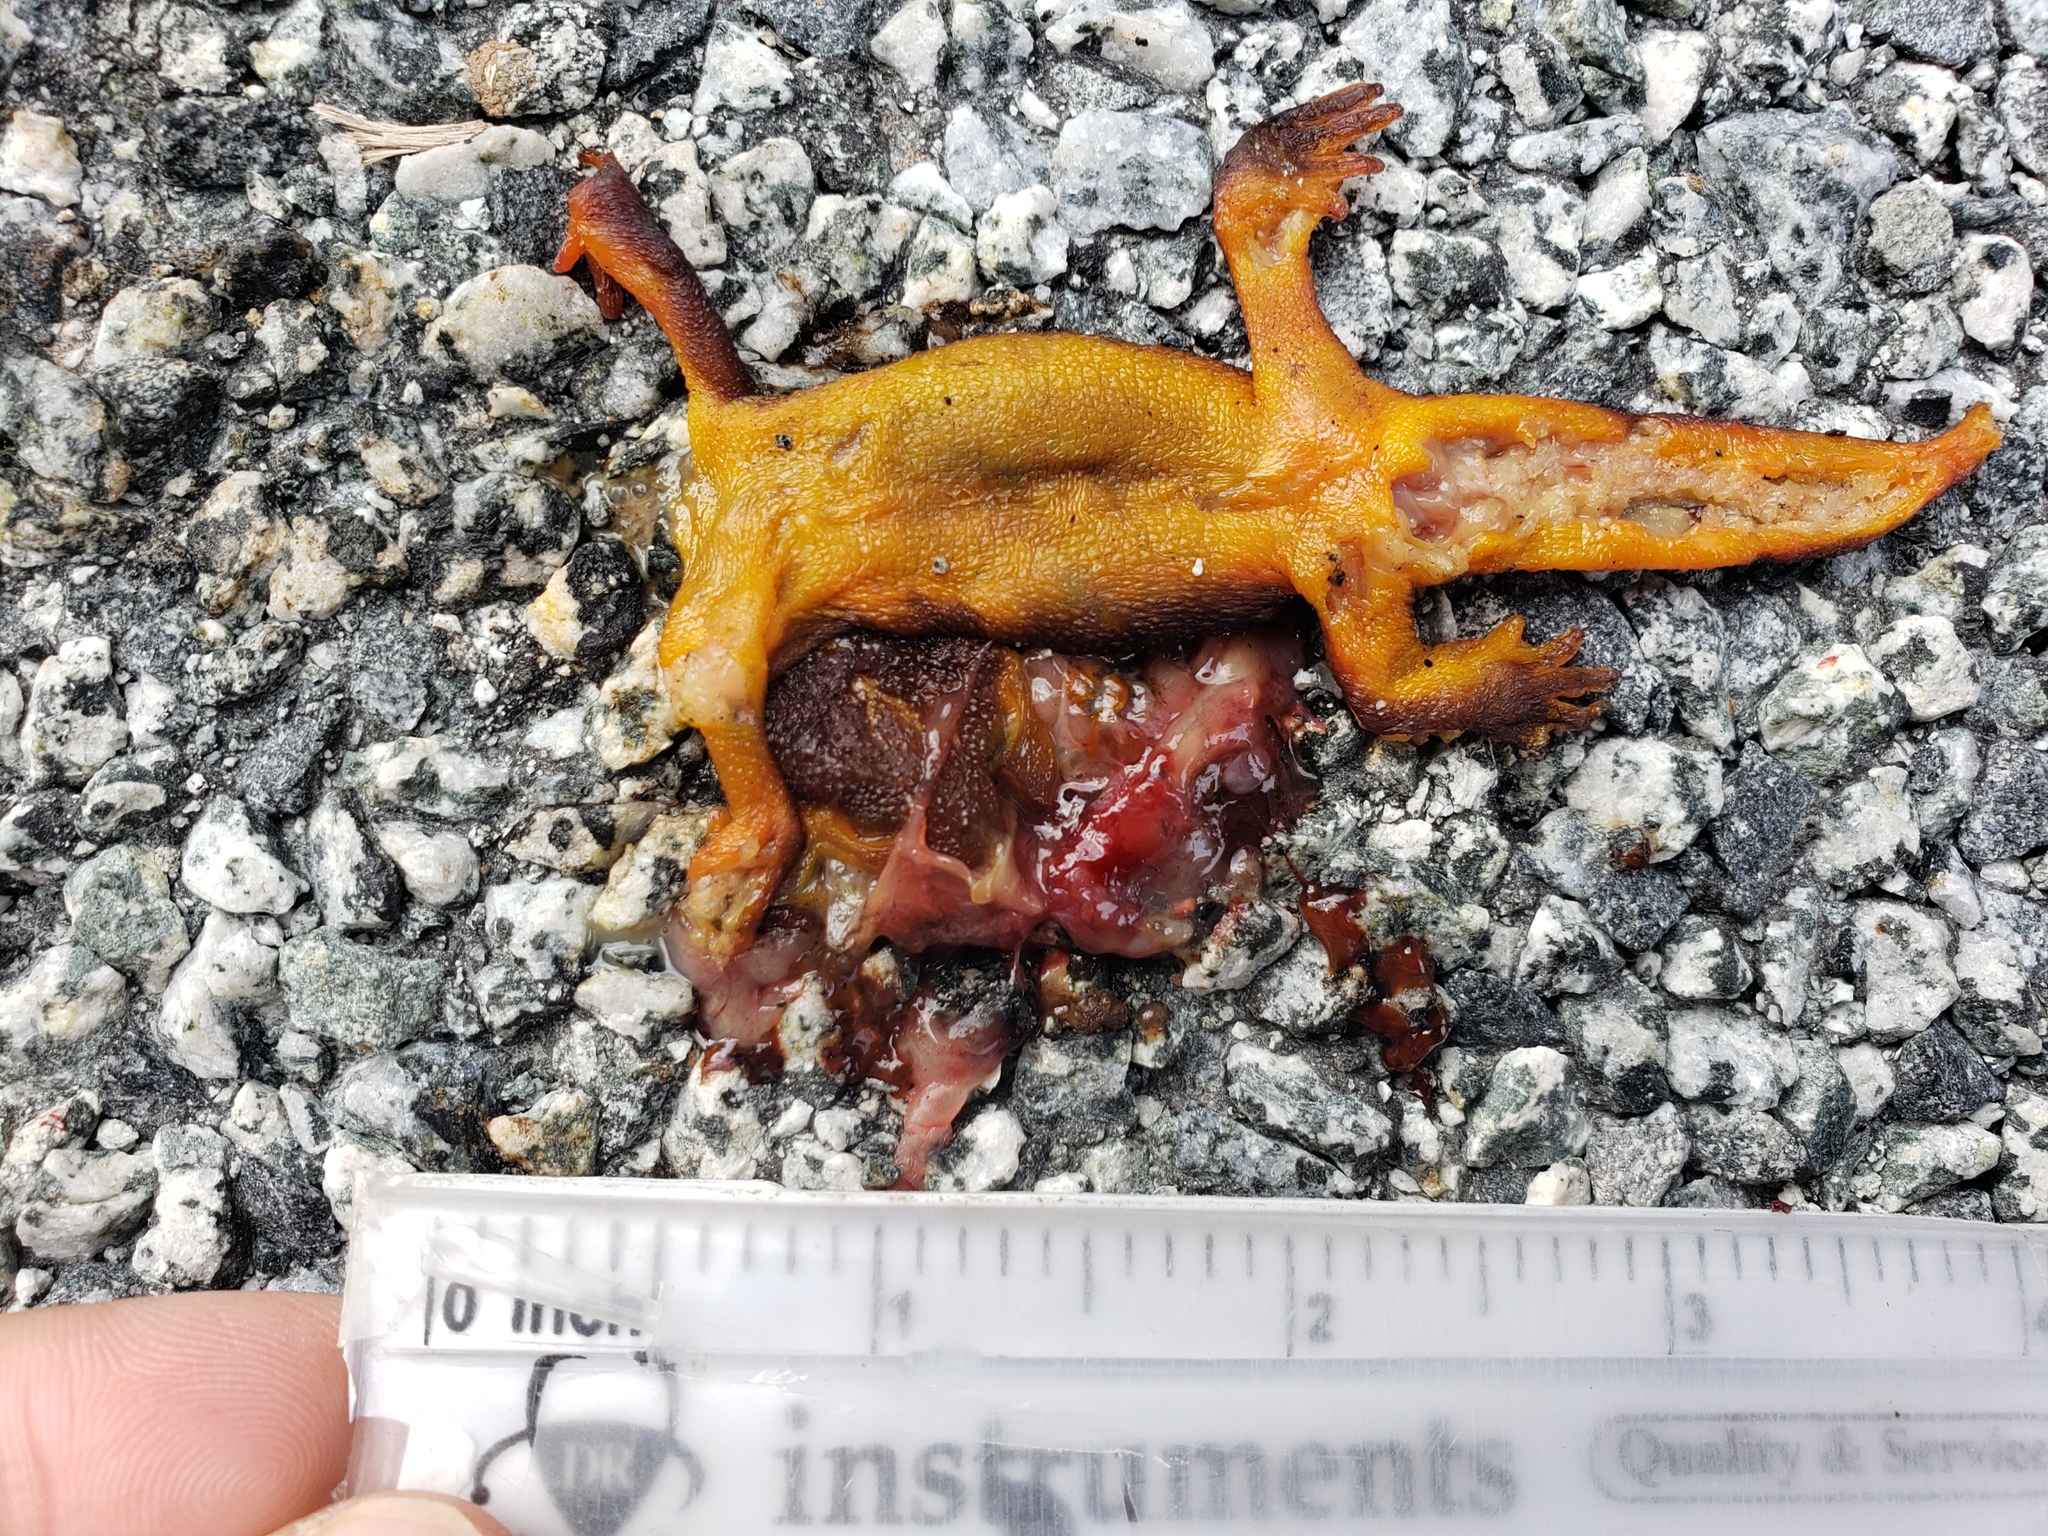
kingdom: Animalia
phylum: Chordata
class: Amphibia
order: Caudata
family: Salamandridae
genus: Taricha
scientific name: Taricha
